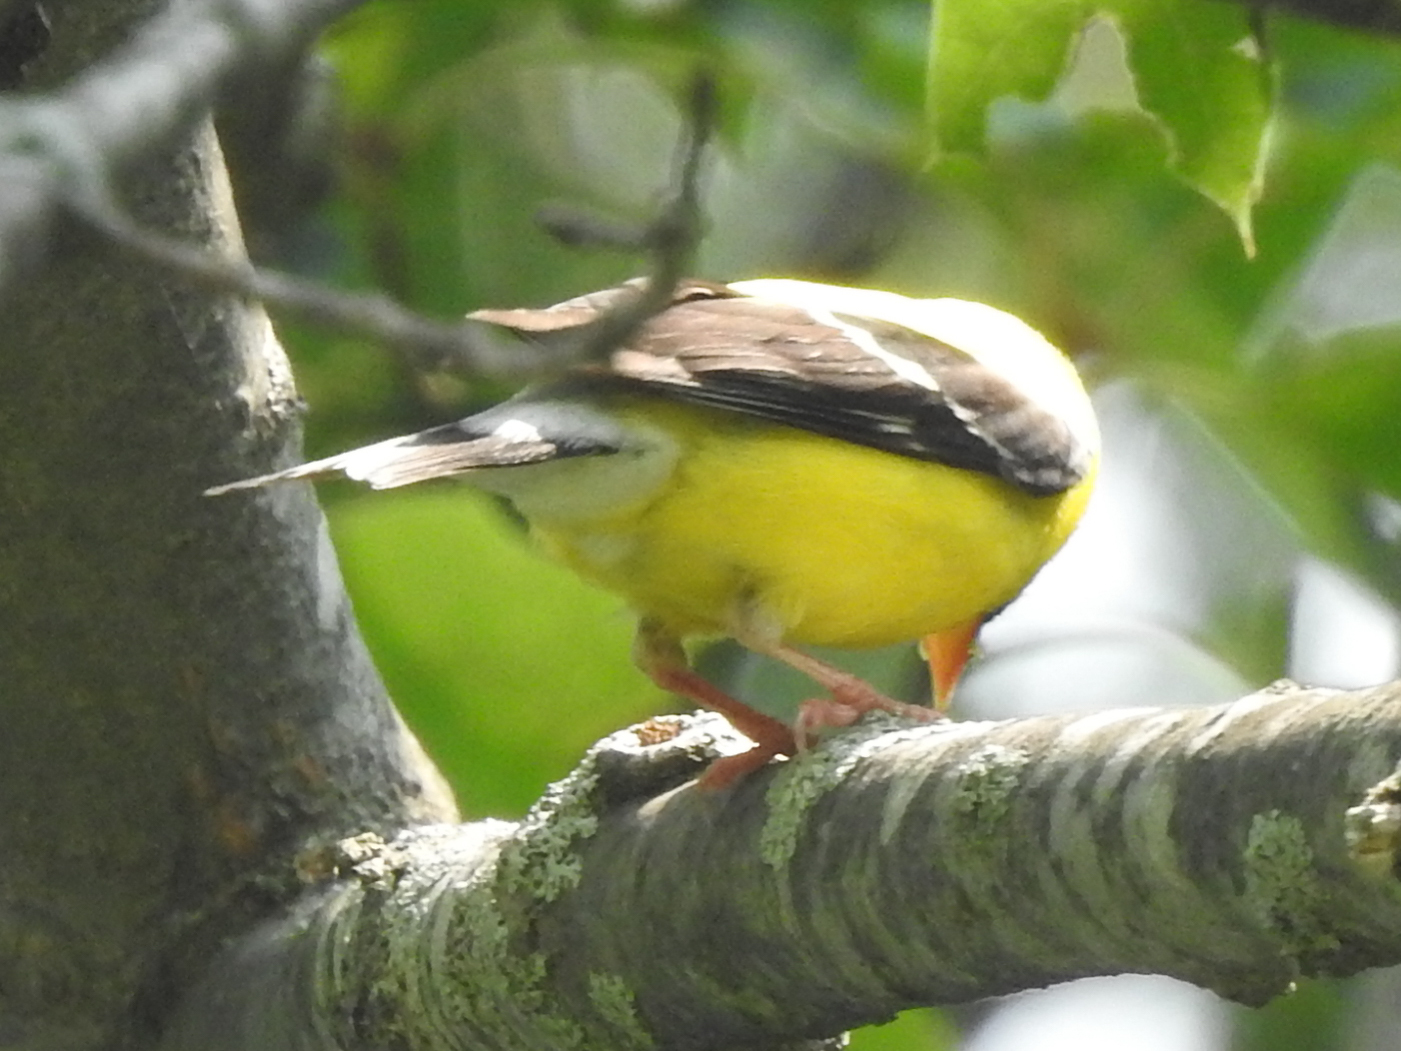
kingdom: Animalia
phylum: Chordata
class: Aves
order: Passeriformes
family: Fringillidae
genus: Spinus
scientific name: Spinus tristis
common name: American goldfinch
